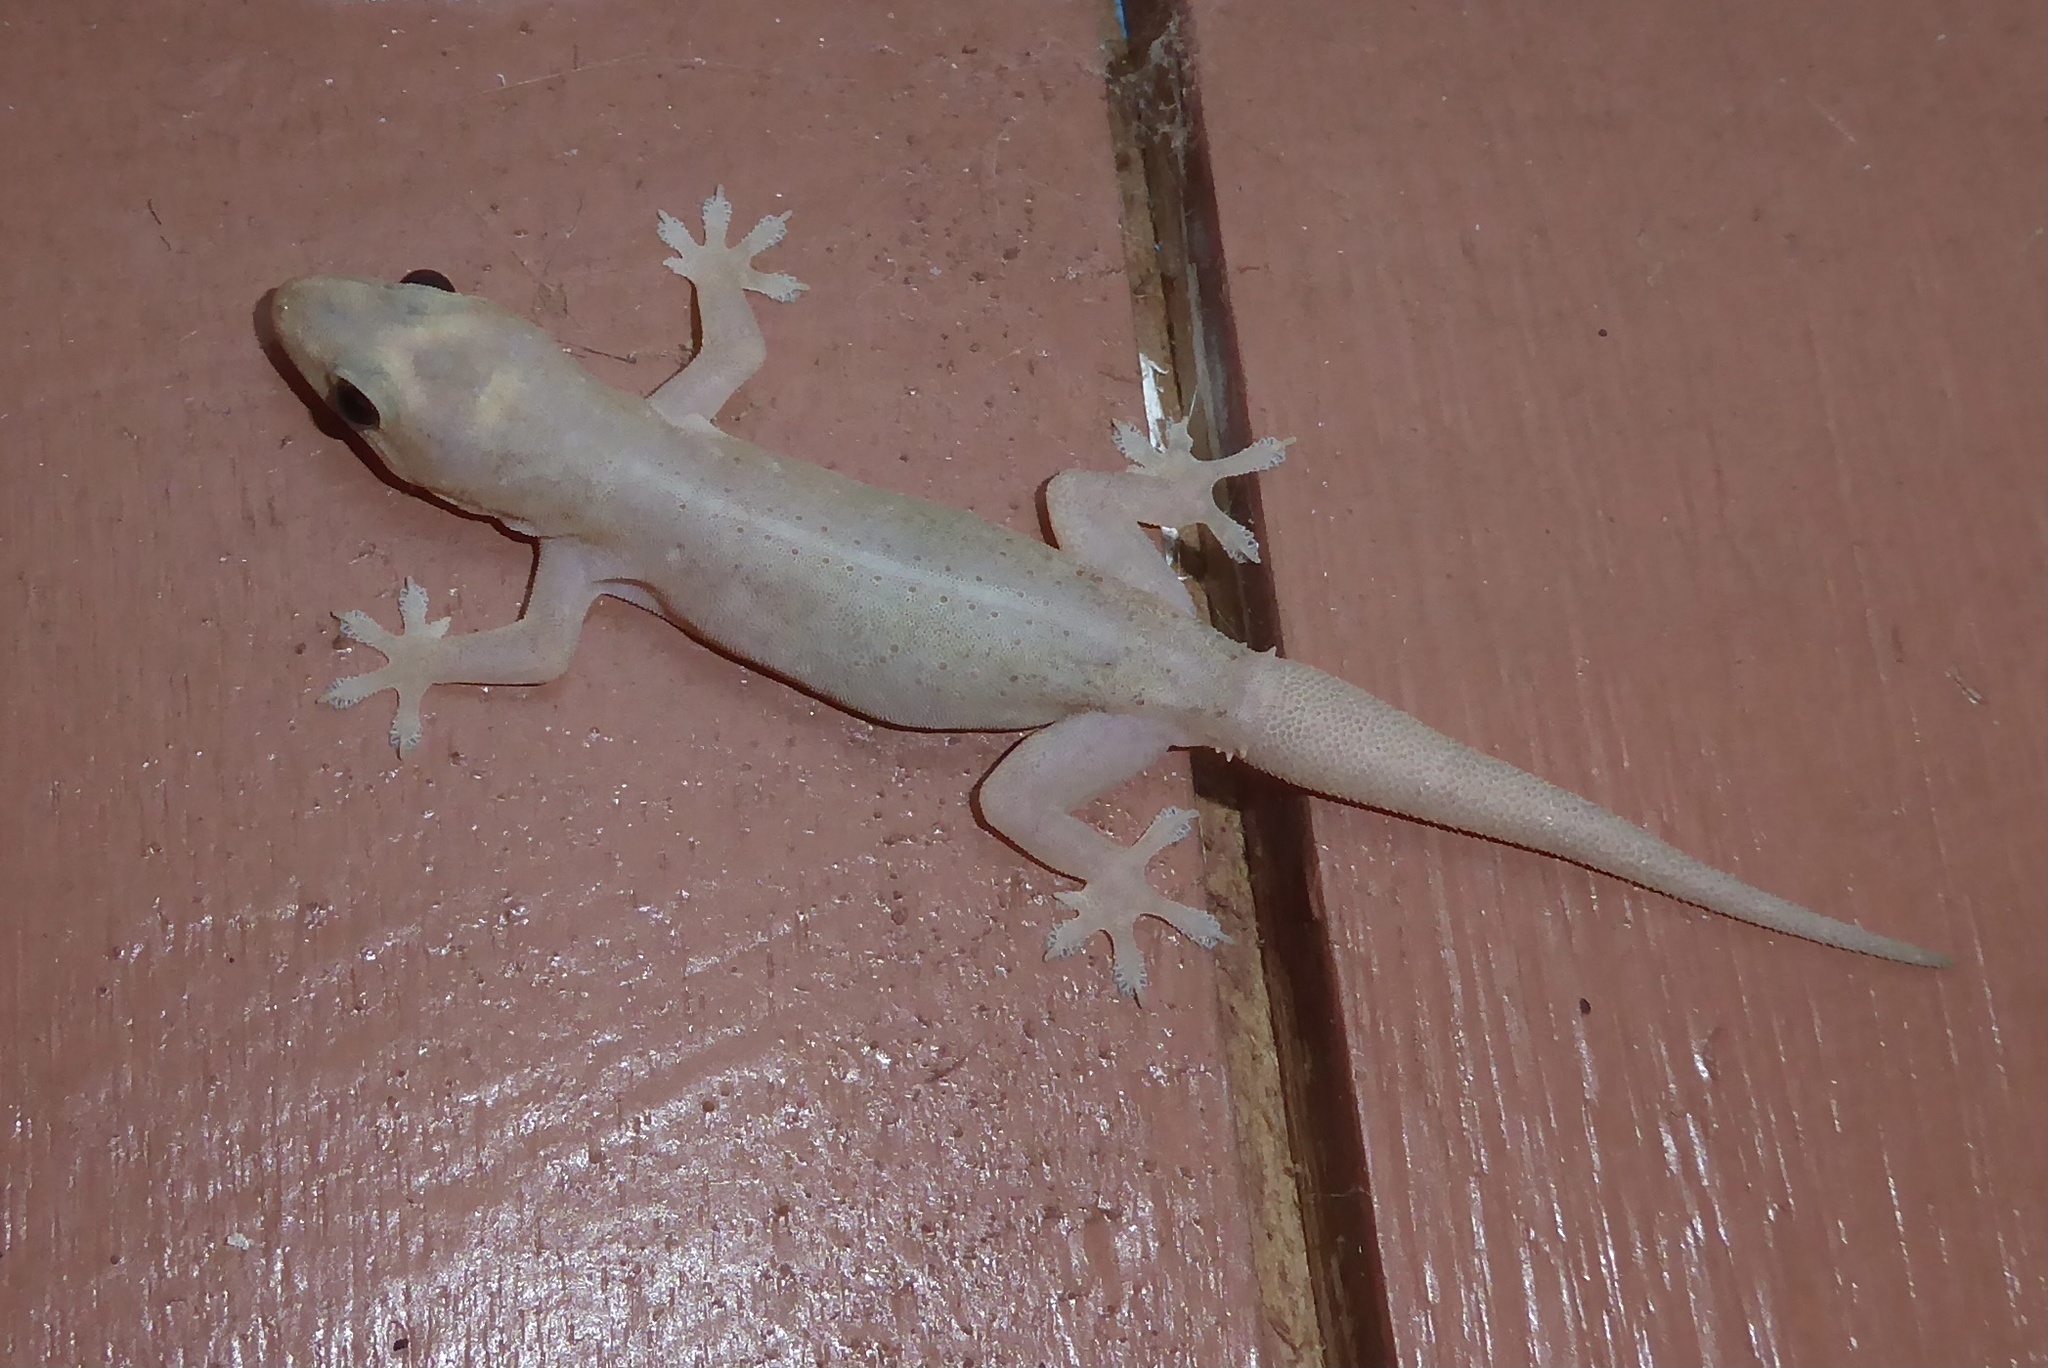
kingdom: Animalia
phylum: Chordata
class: Squamata
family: Gekkonidae
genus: Hemidactylus
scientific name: Hemidactylus frenatus
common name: Common house gecko
